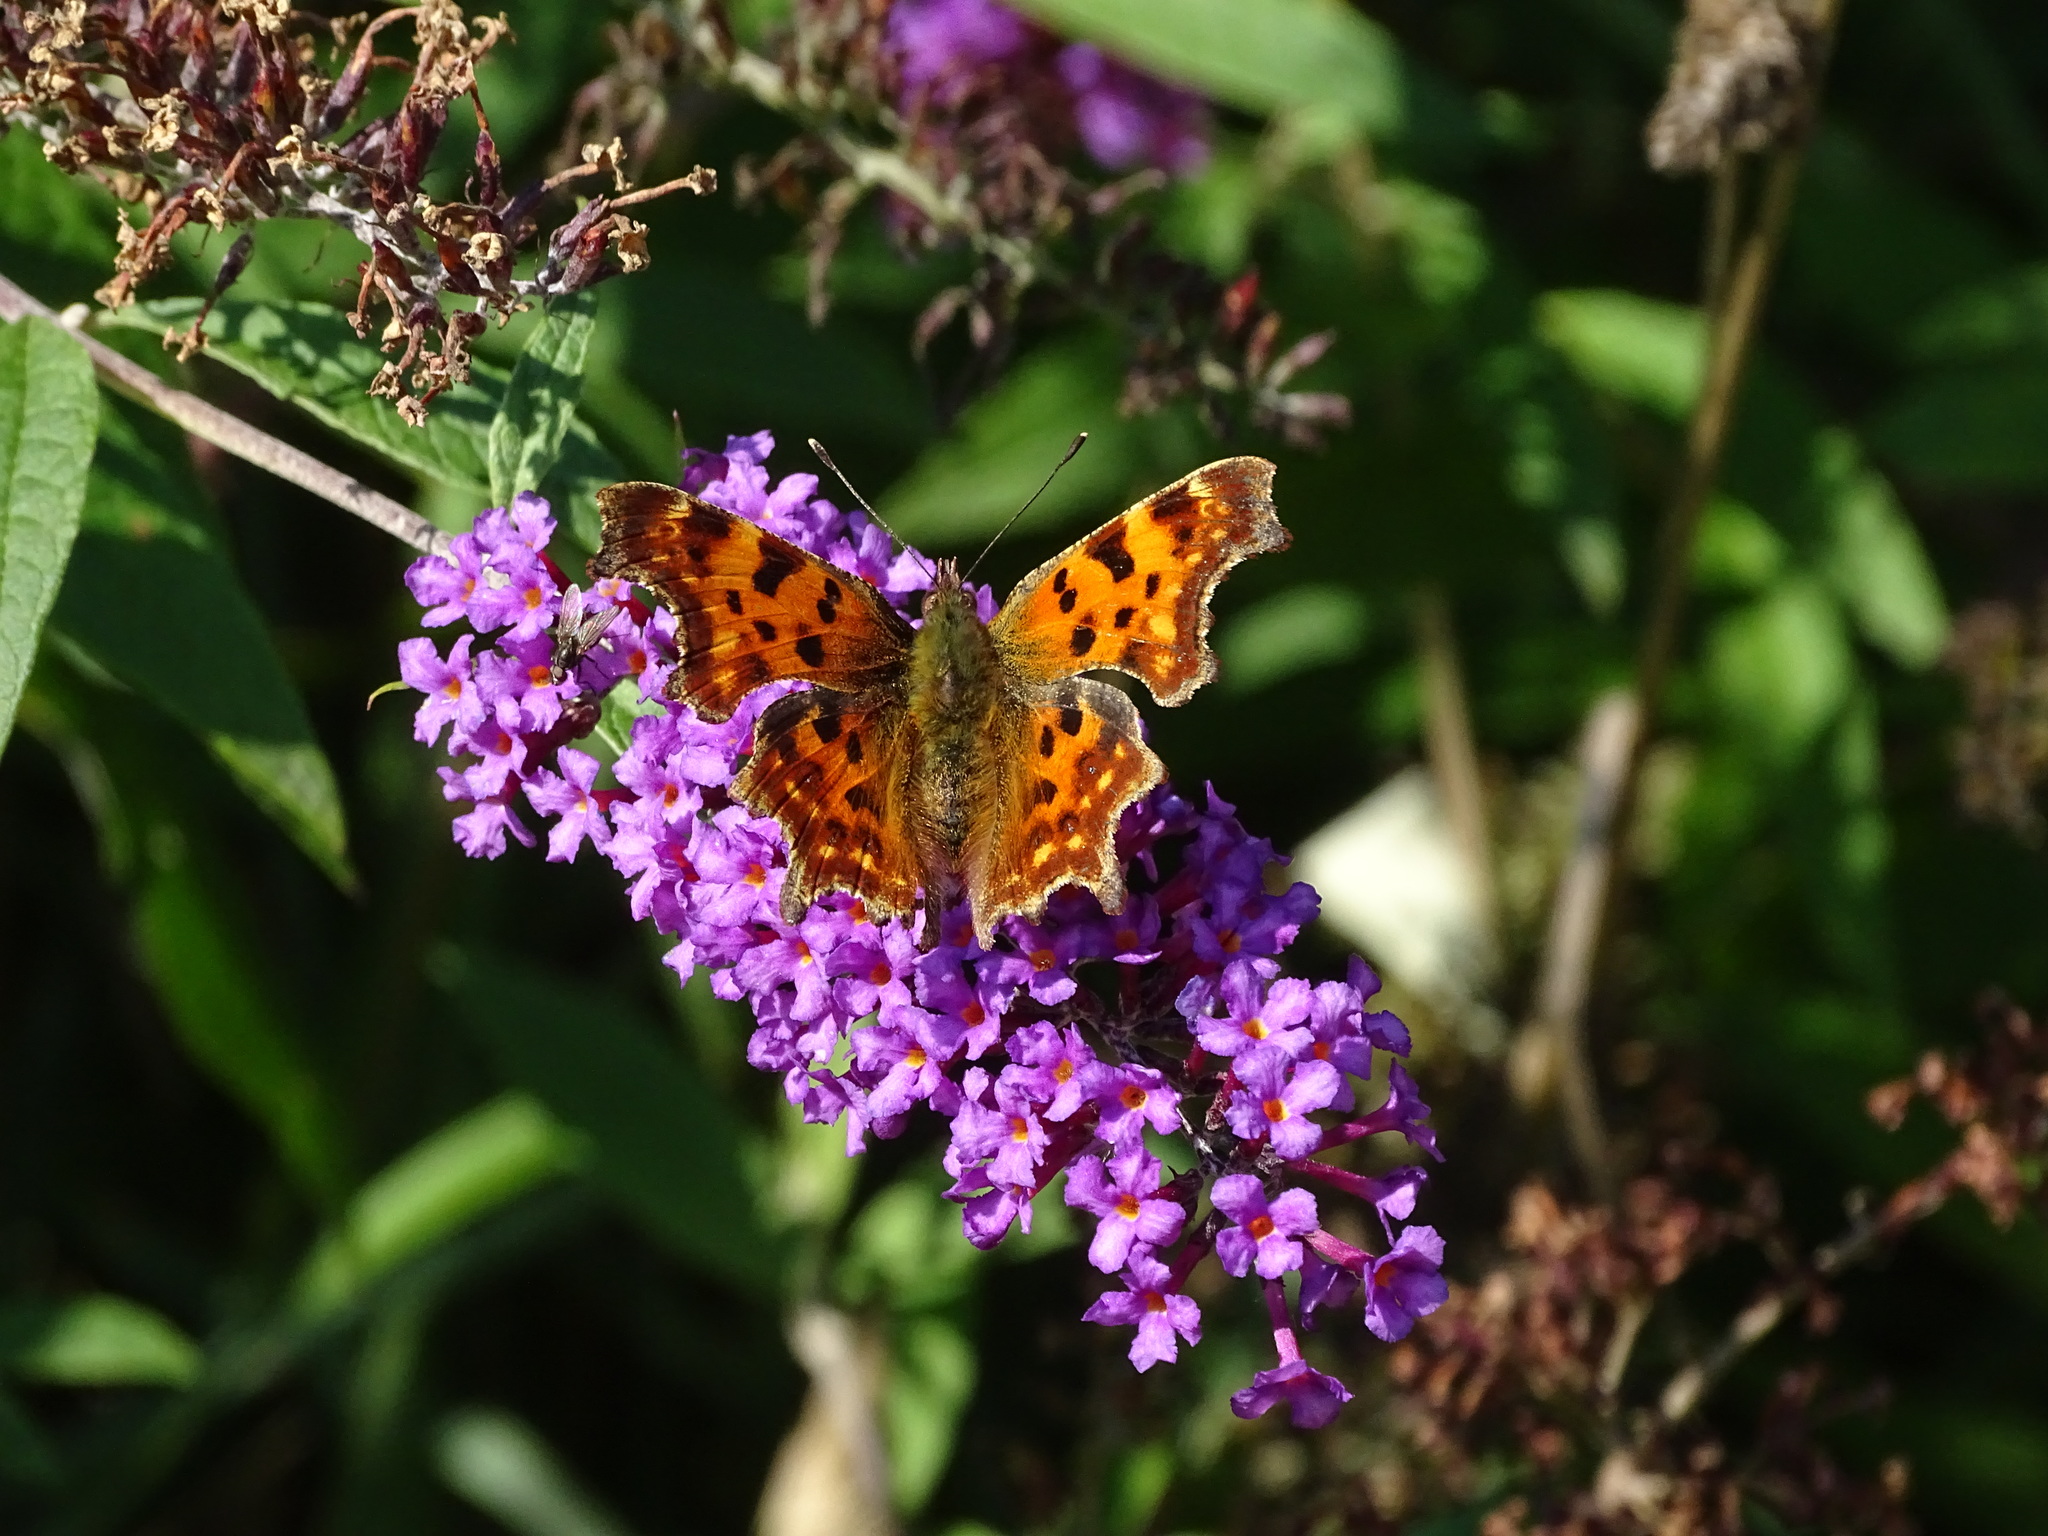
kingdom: Animalia
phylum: Arthropoda
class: Insecta
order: Lepidoptera
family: Nymphalidae
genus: Polygonia
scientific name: Polygonia c-album
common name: Comma
